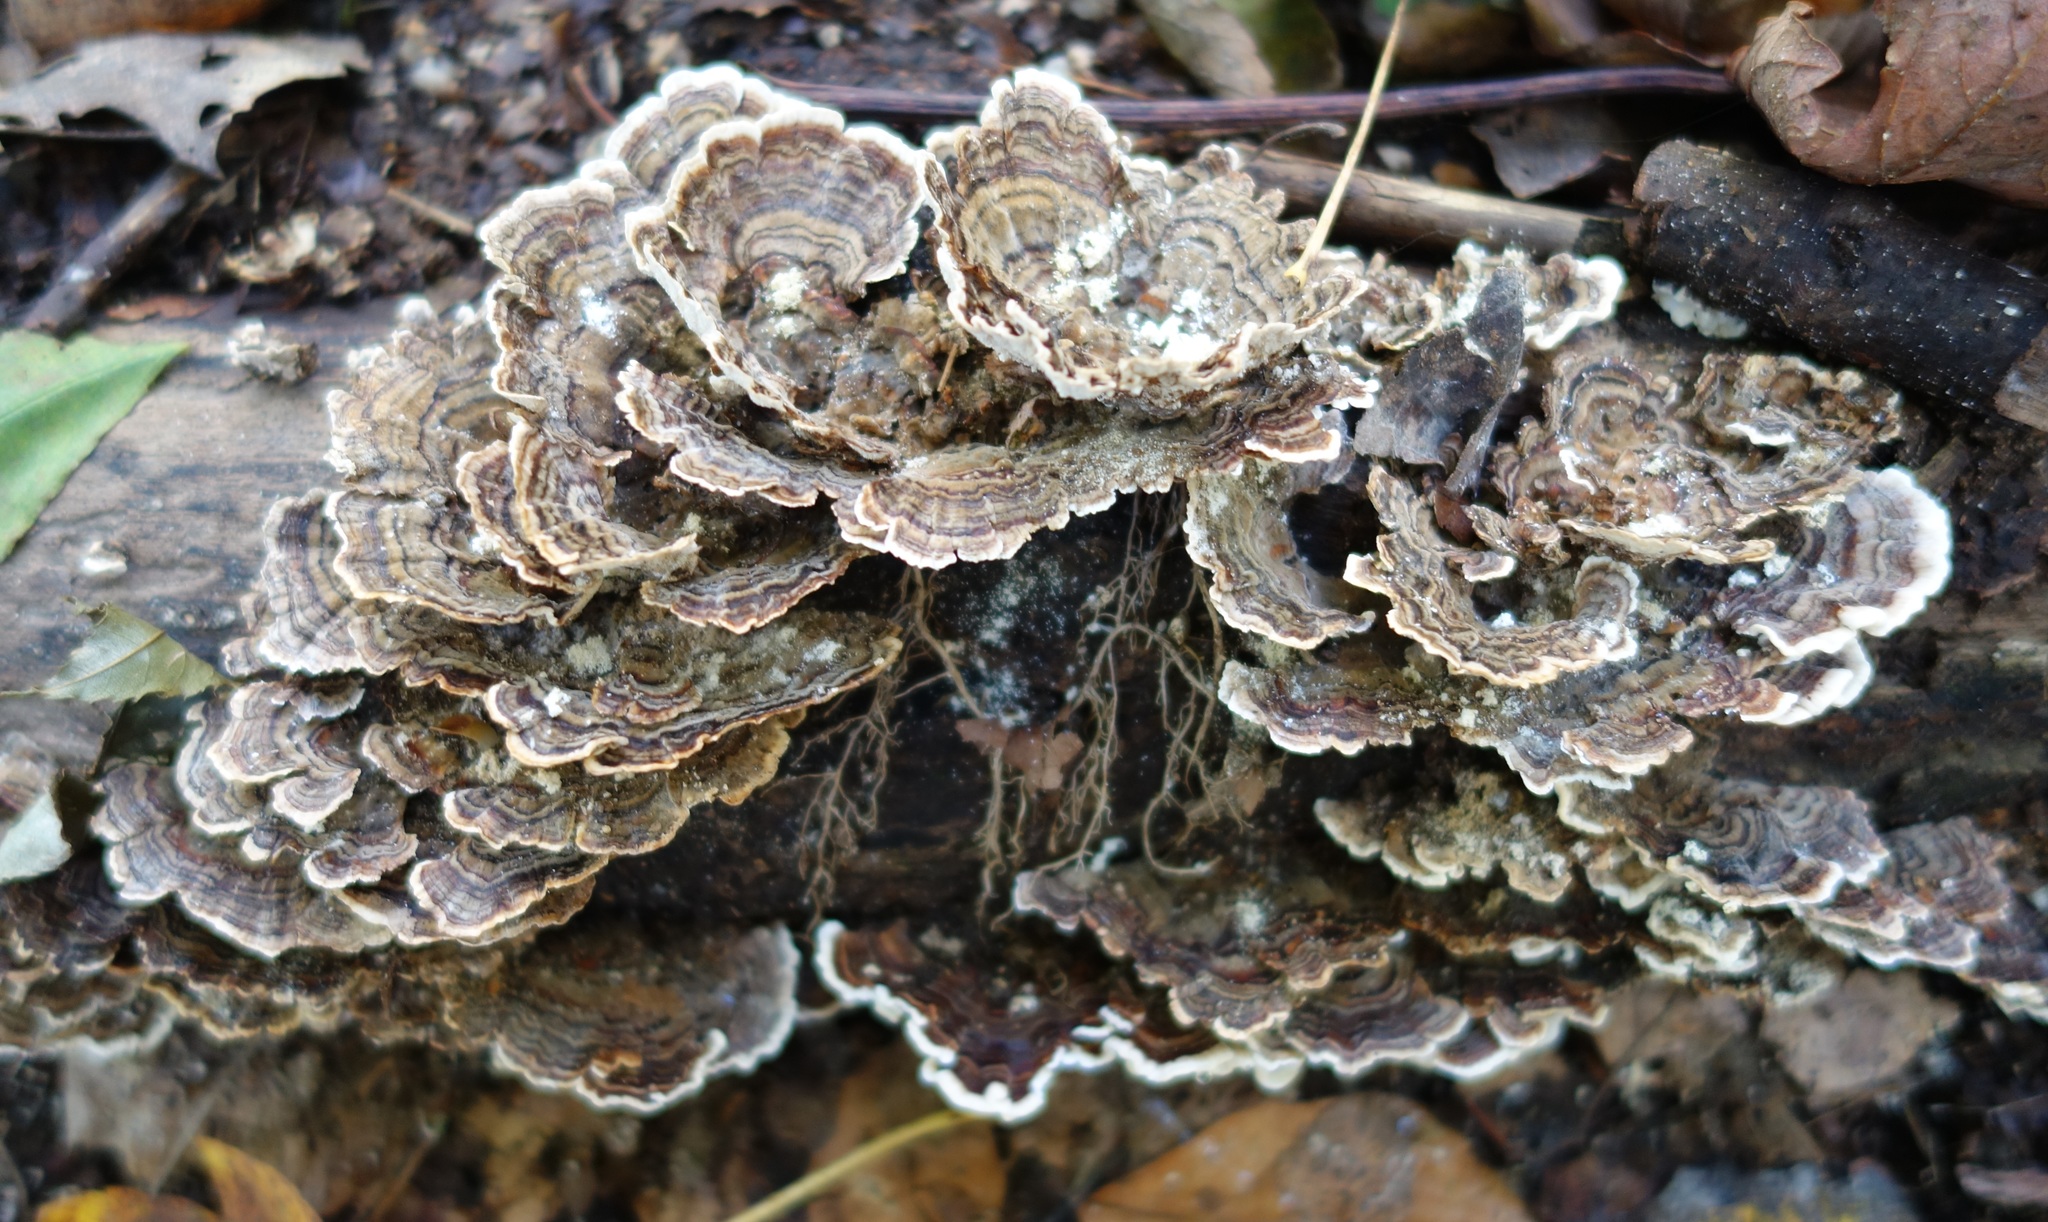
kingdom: Fungi
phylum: Basidiomycota
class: Agaricomycetes
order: Polyporales
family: Polyporaceae
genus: Trametes
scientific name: Trametes versicolor
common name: Turkeytail
